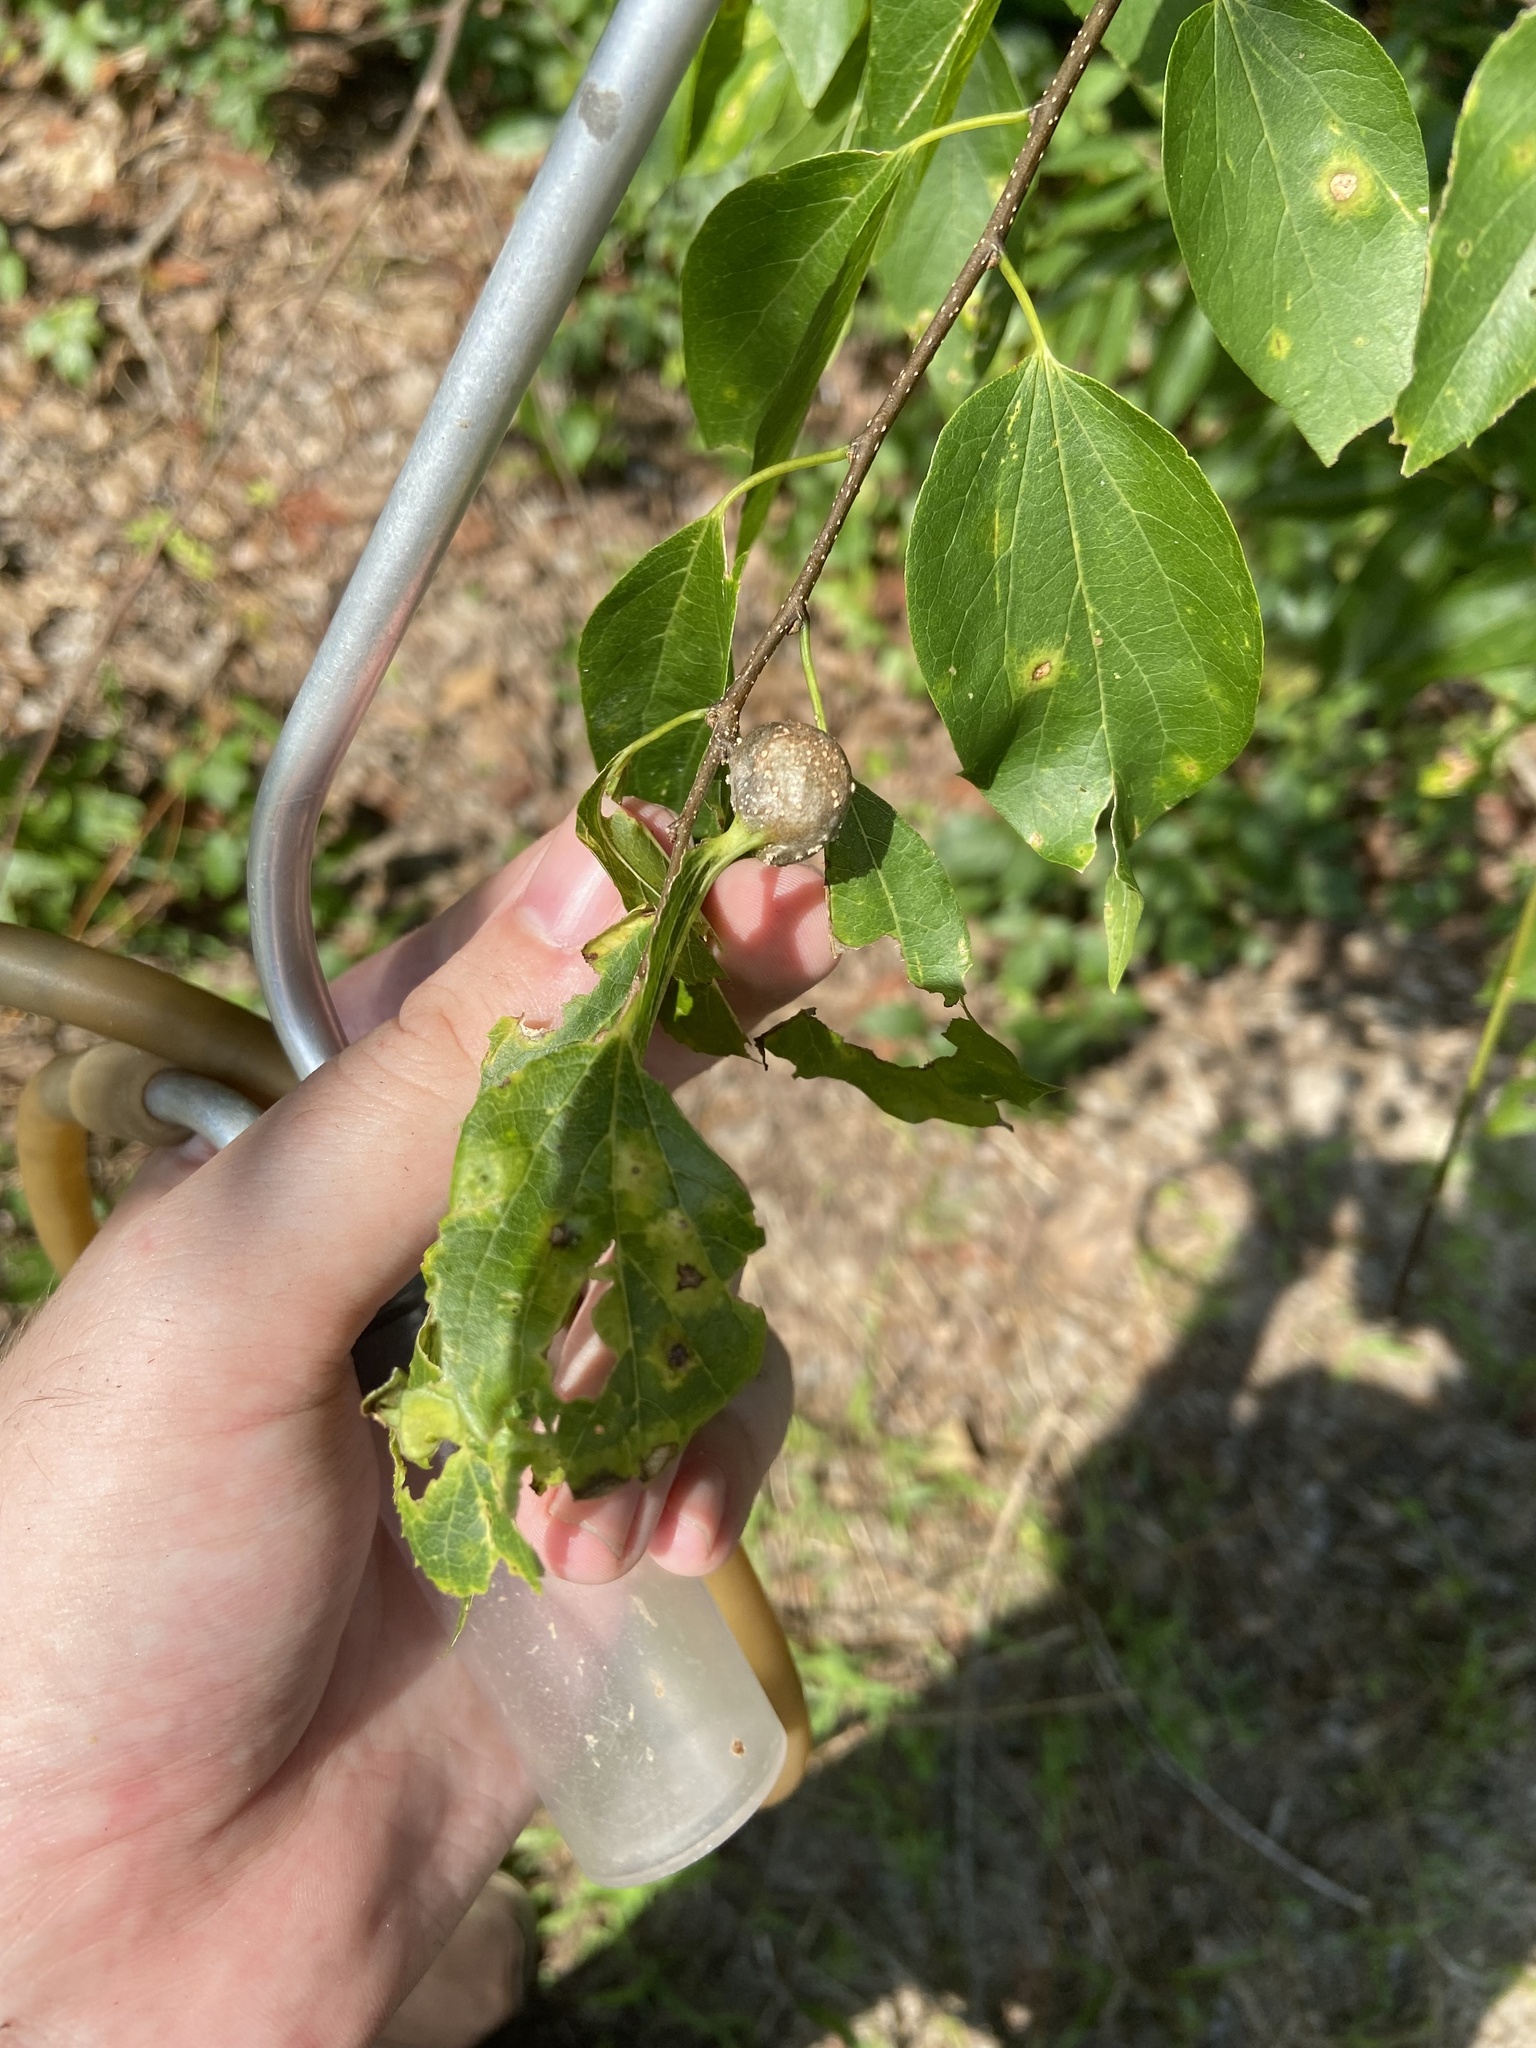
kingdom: Animalia
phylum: Arthropoda
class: Insecta
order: Hemiptera
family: Aphalaridae
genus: Pachypsylla
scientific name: Pachypsylla venusta
